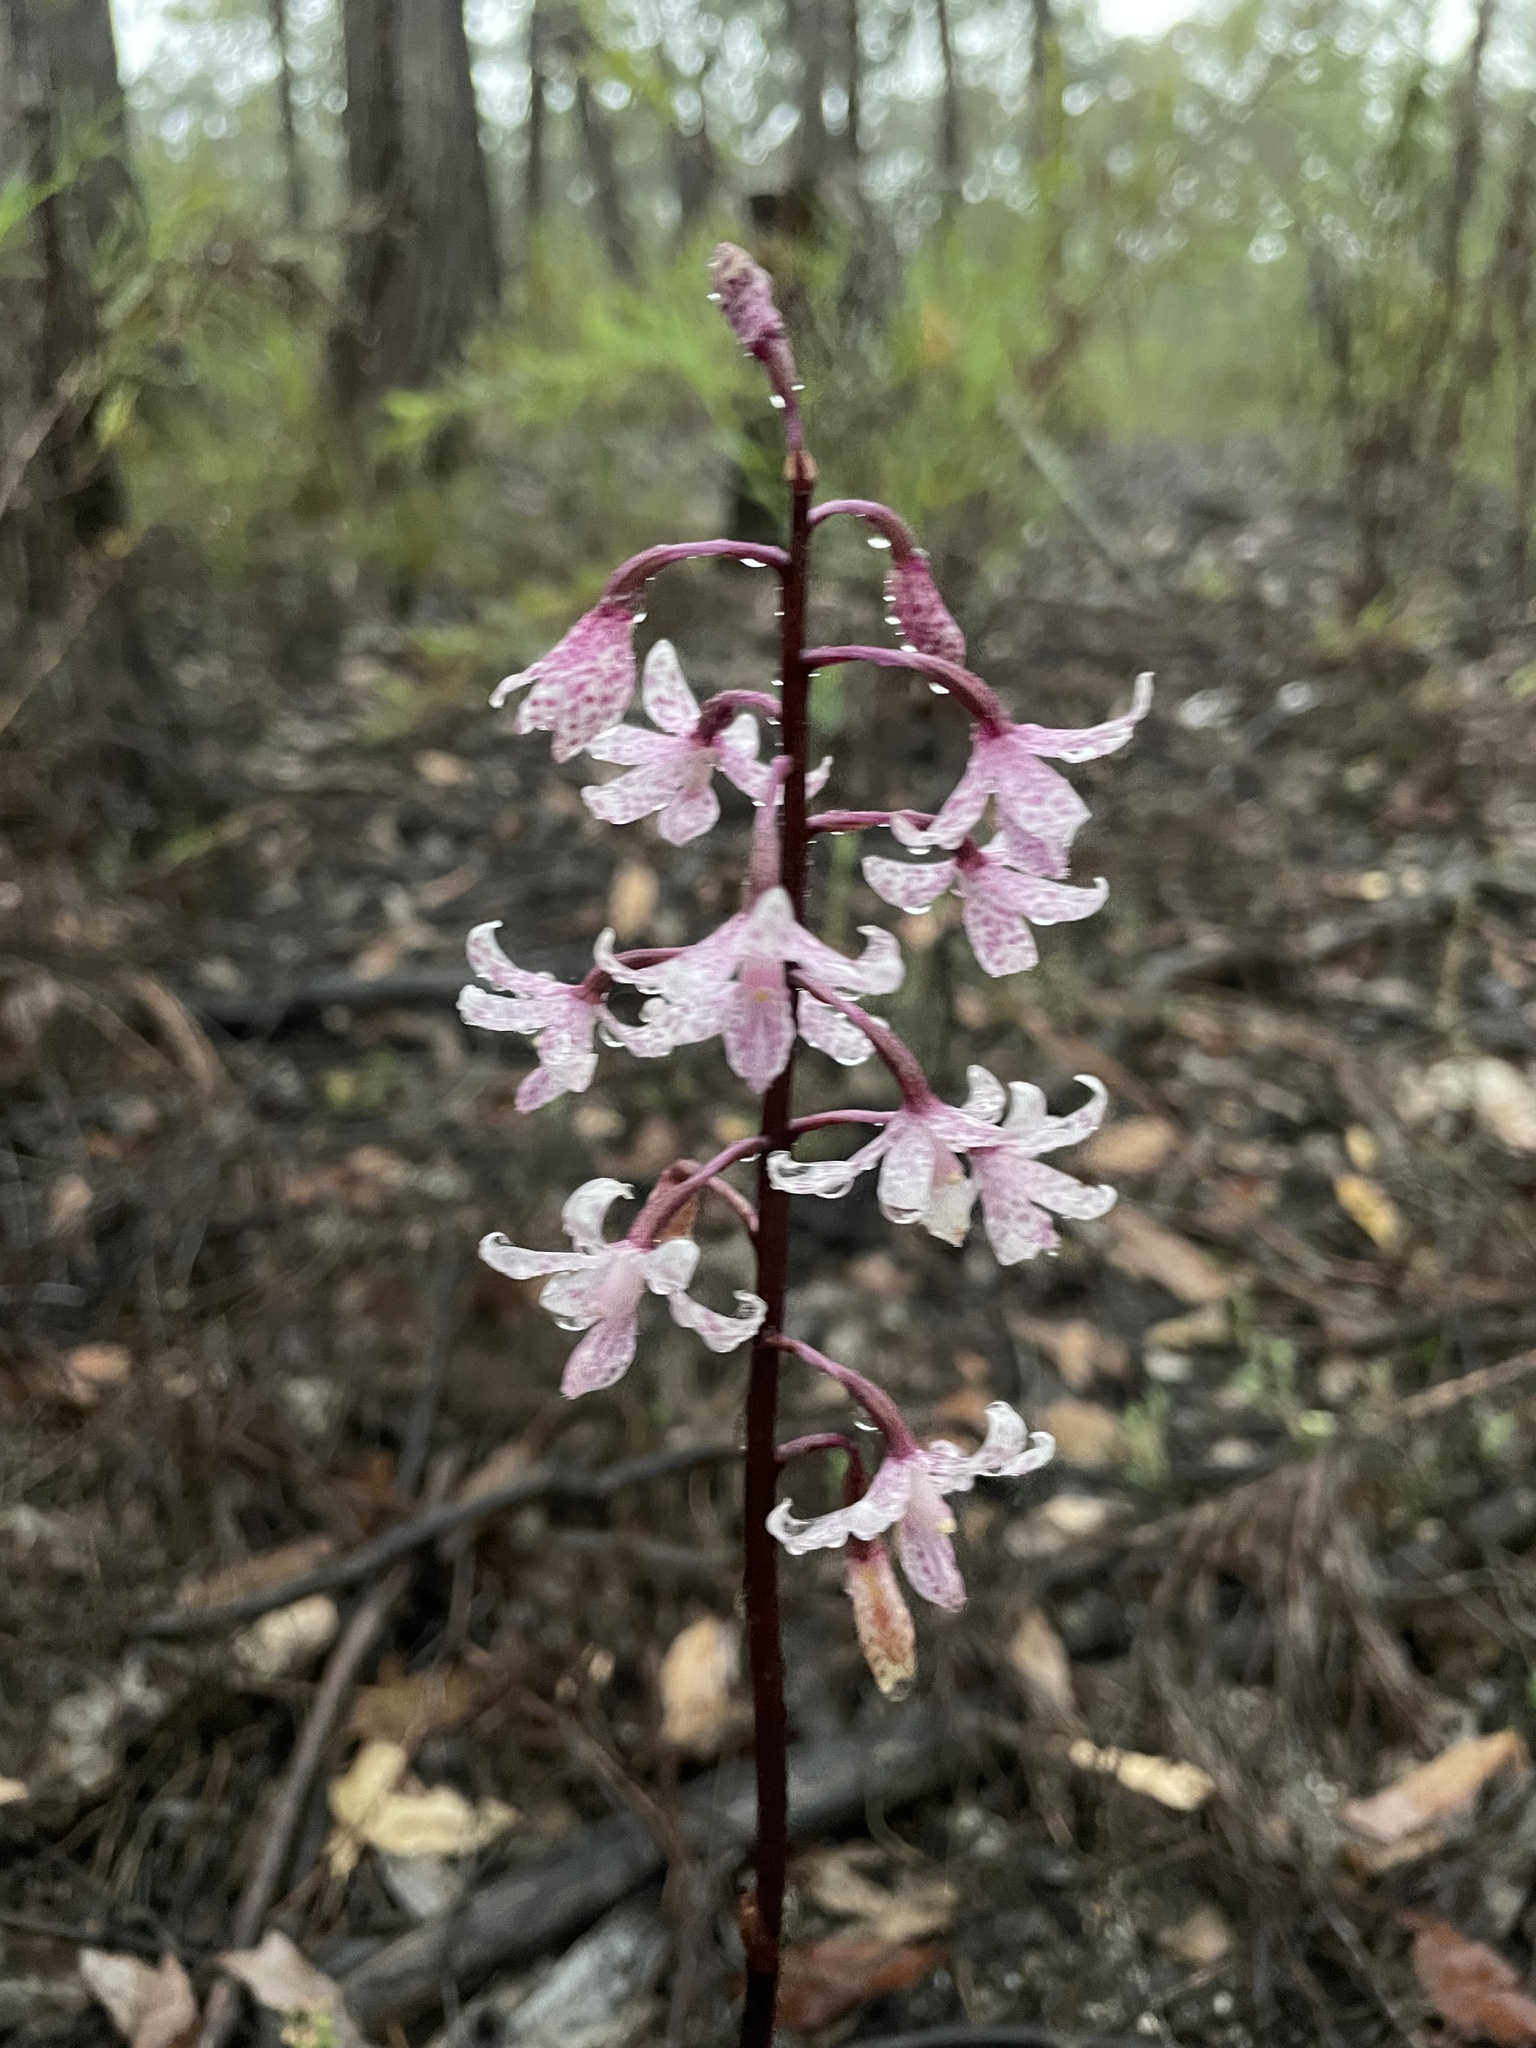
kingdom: Plantae
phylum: Tracheophyta
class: Liliopsida
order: Asparagales
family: Orchidaceae
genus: Dipodium
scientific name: Dipodium roseum
